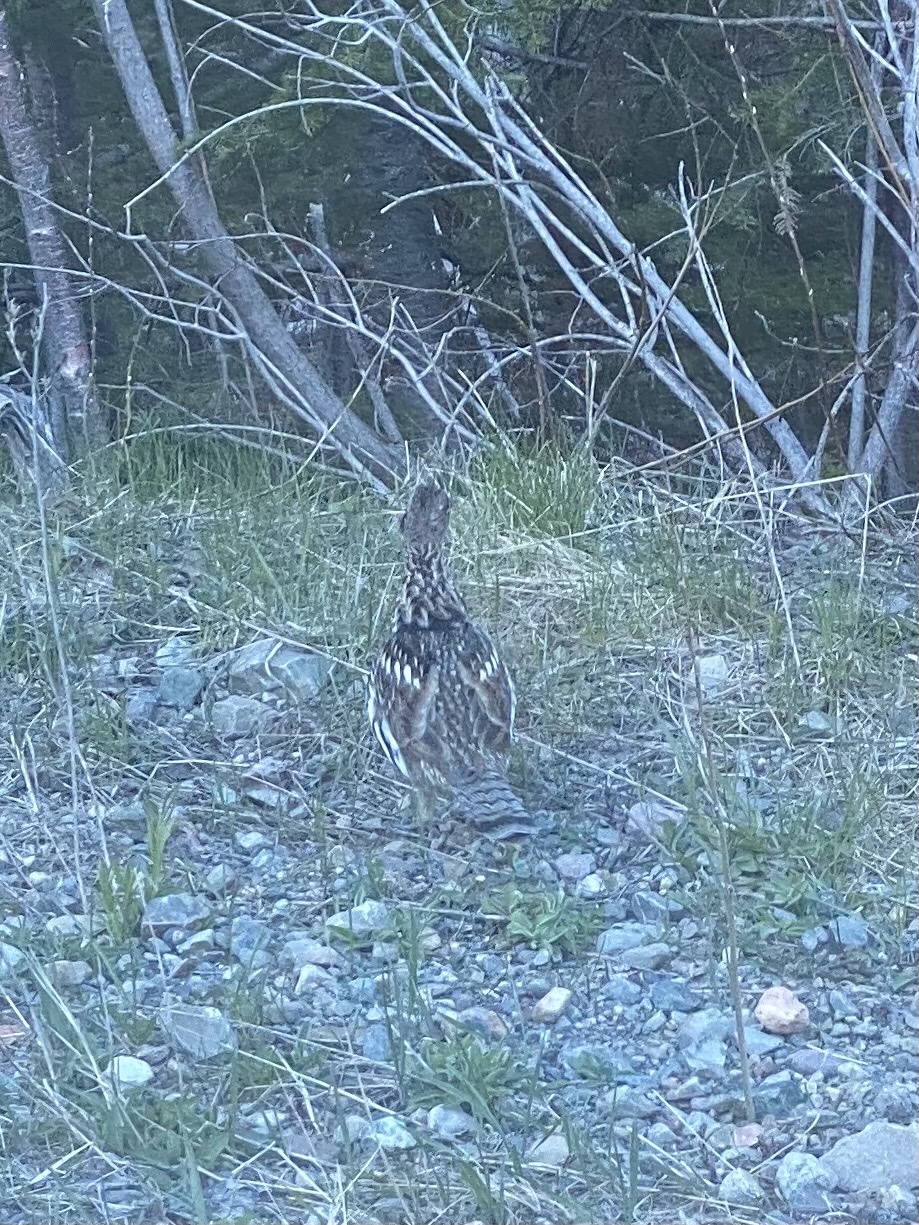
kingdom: Animalia
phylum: Chordata
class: Aves
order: Galliformes
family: Phasianidae
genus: Bonasa
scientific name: Bonasa umbellus
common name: Ruffed grouse
